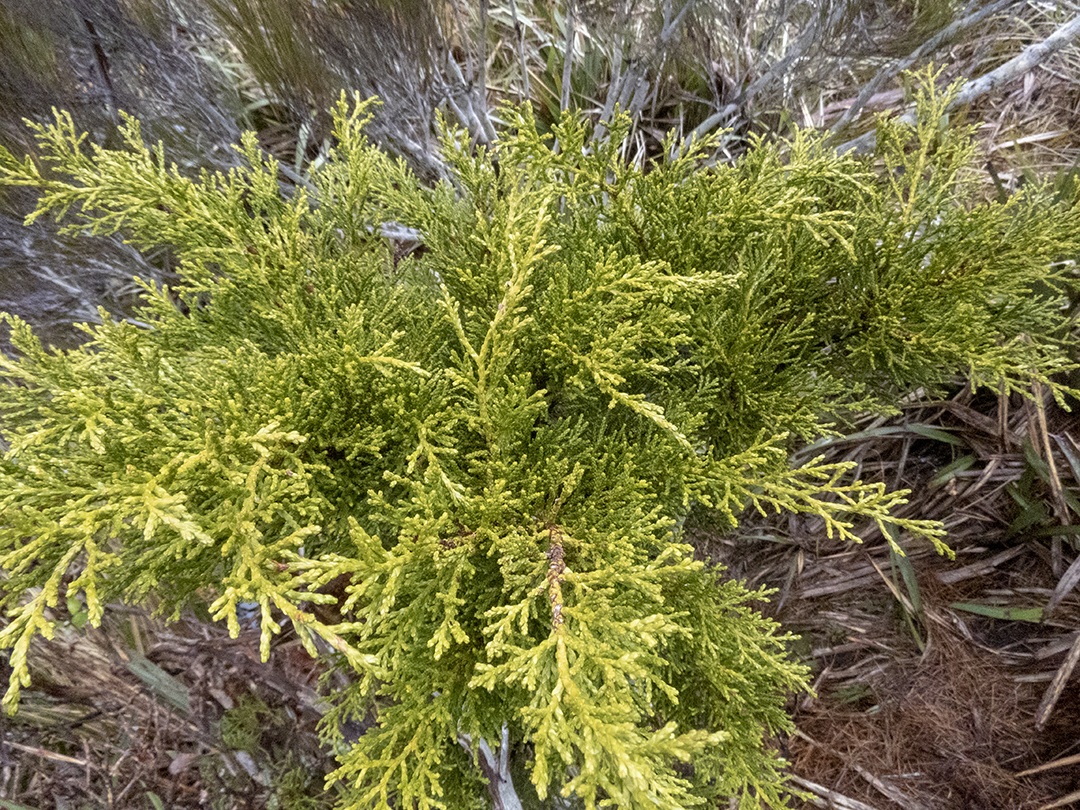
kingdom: Plantae
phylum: Tracheophyta
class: Pinopsida
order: Pinales
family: Podocarpaceae
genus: Halocarpus
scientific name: Halocarpus bidwillii
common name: Bog pine
